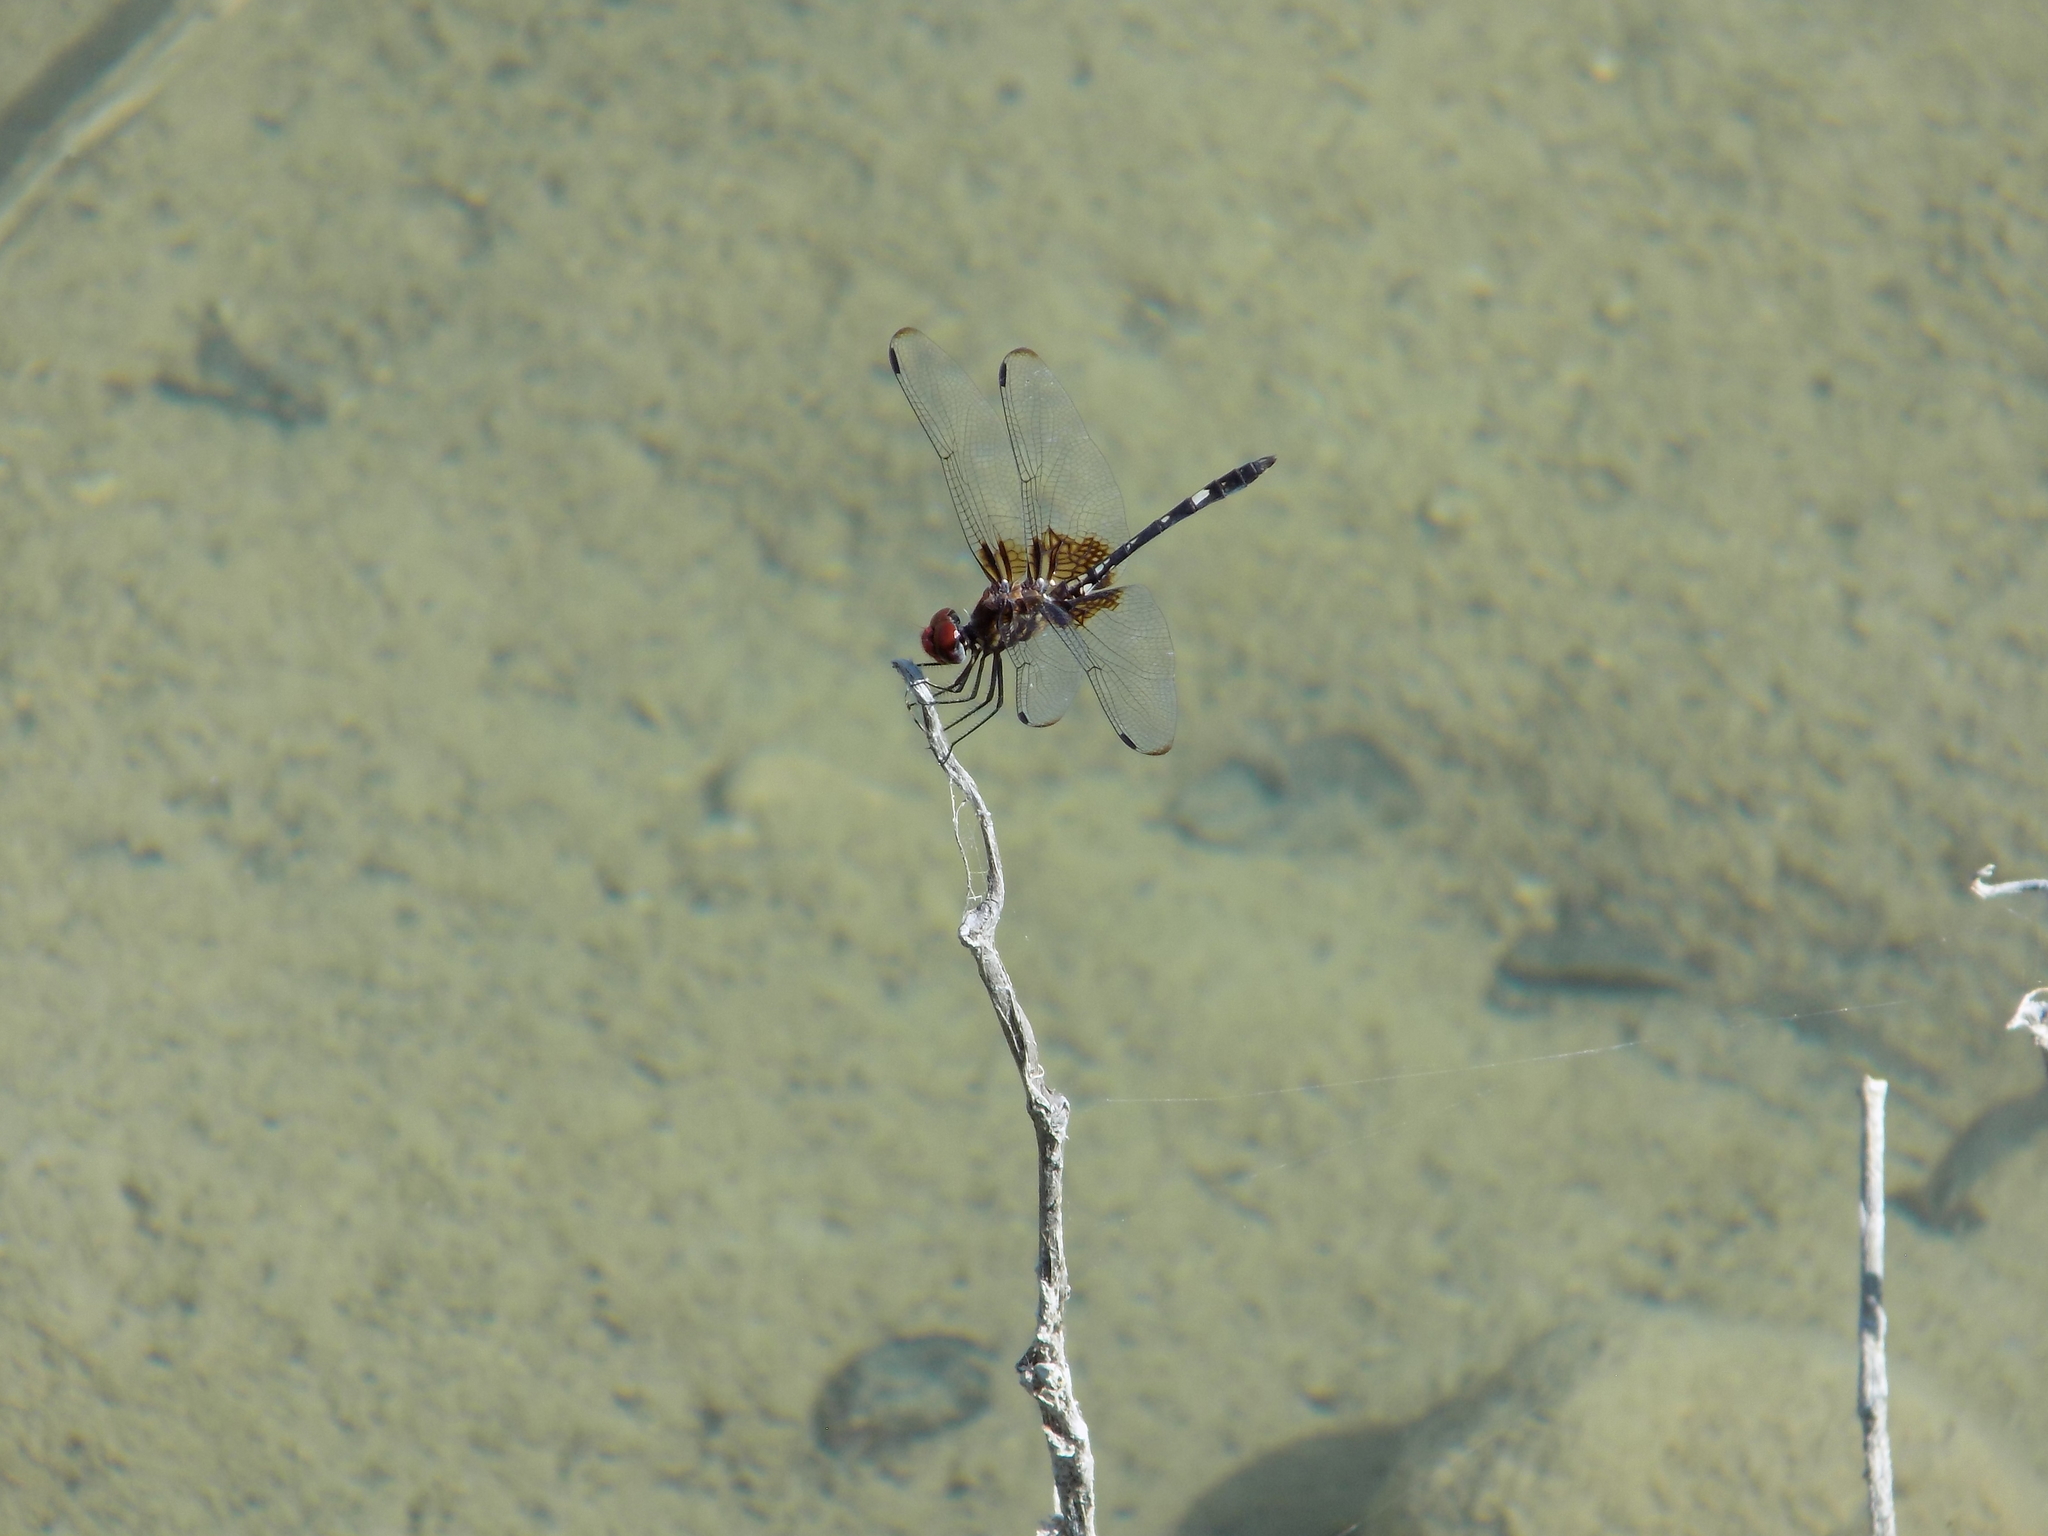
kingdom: Animalia
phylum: Arthropoda
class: Insecta
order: Odonata
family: Libellulidae
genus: Dythemis
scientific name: Dythemis fugax
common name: Checkered setwing
